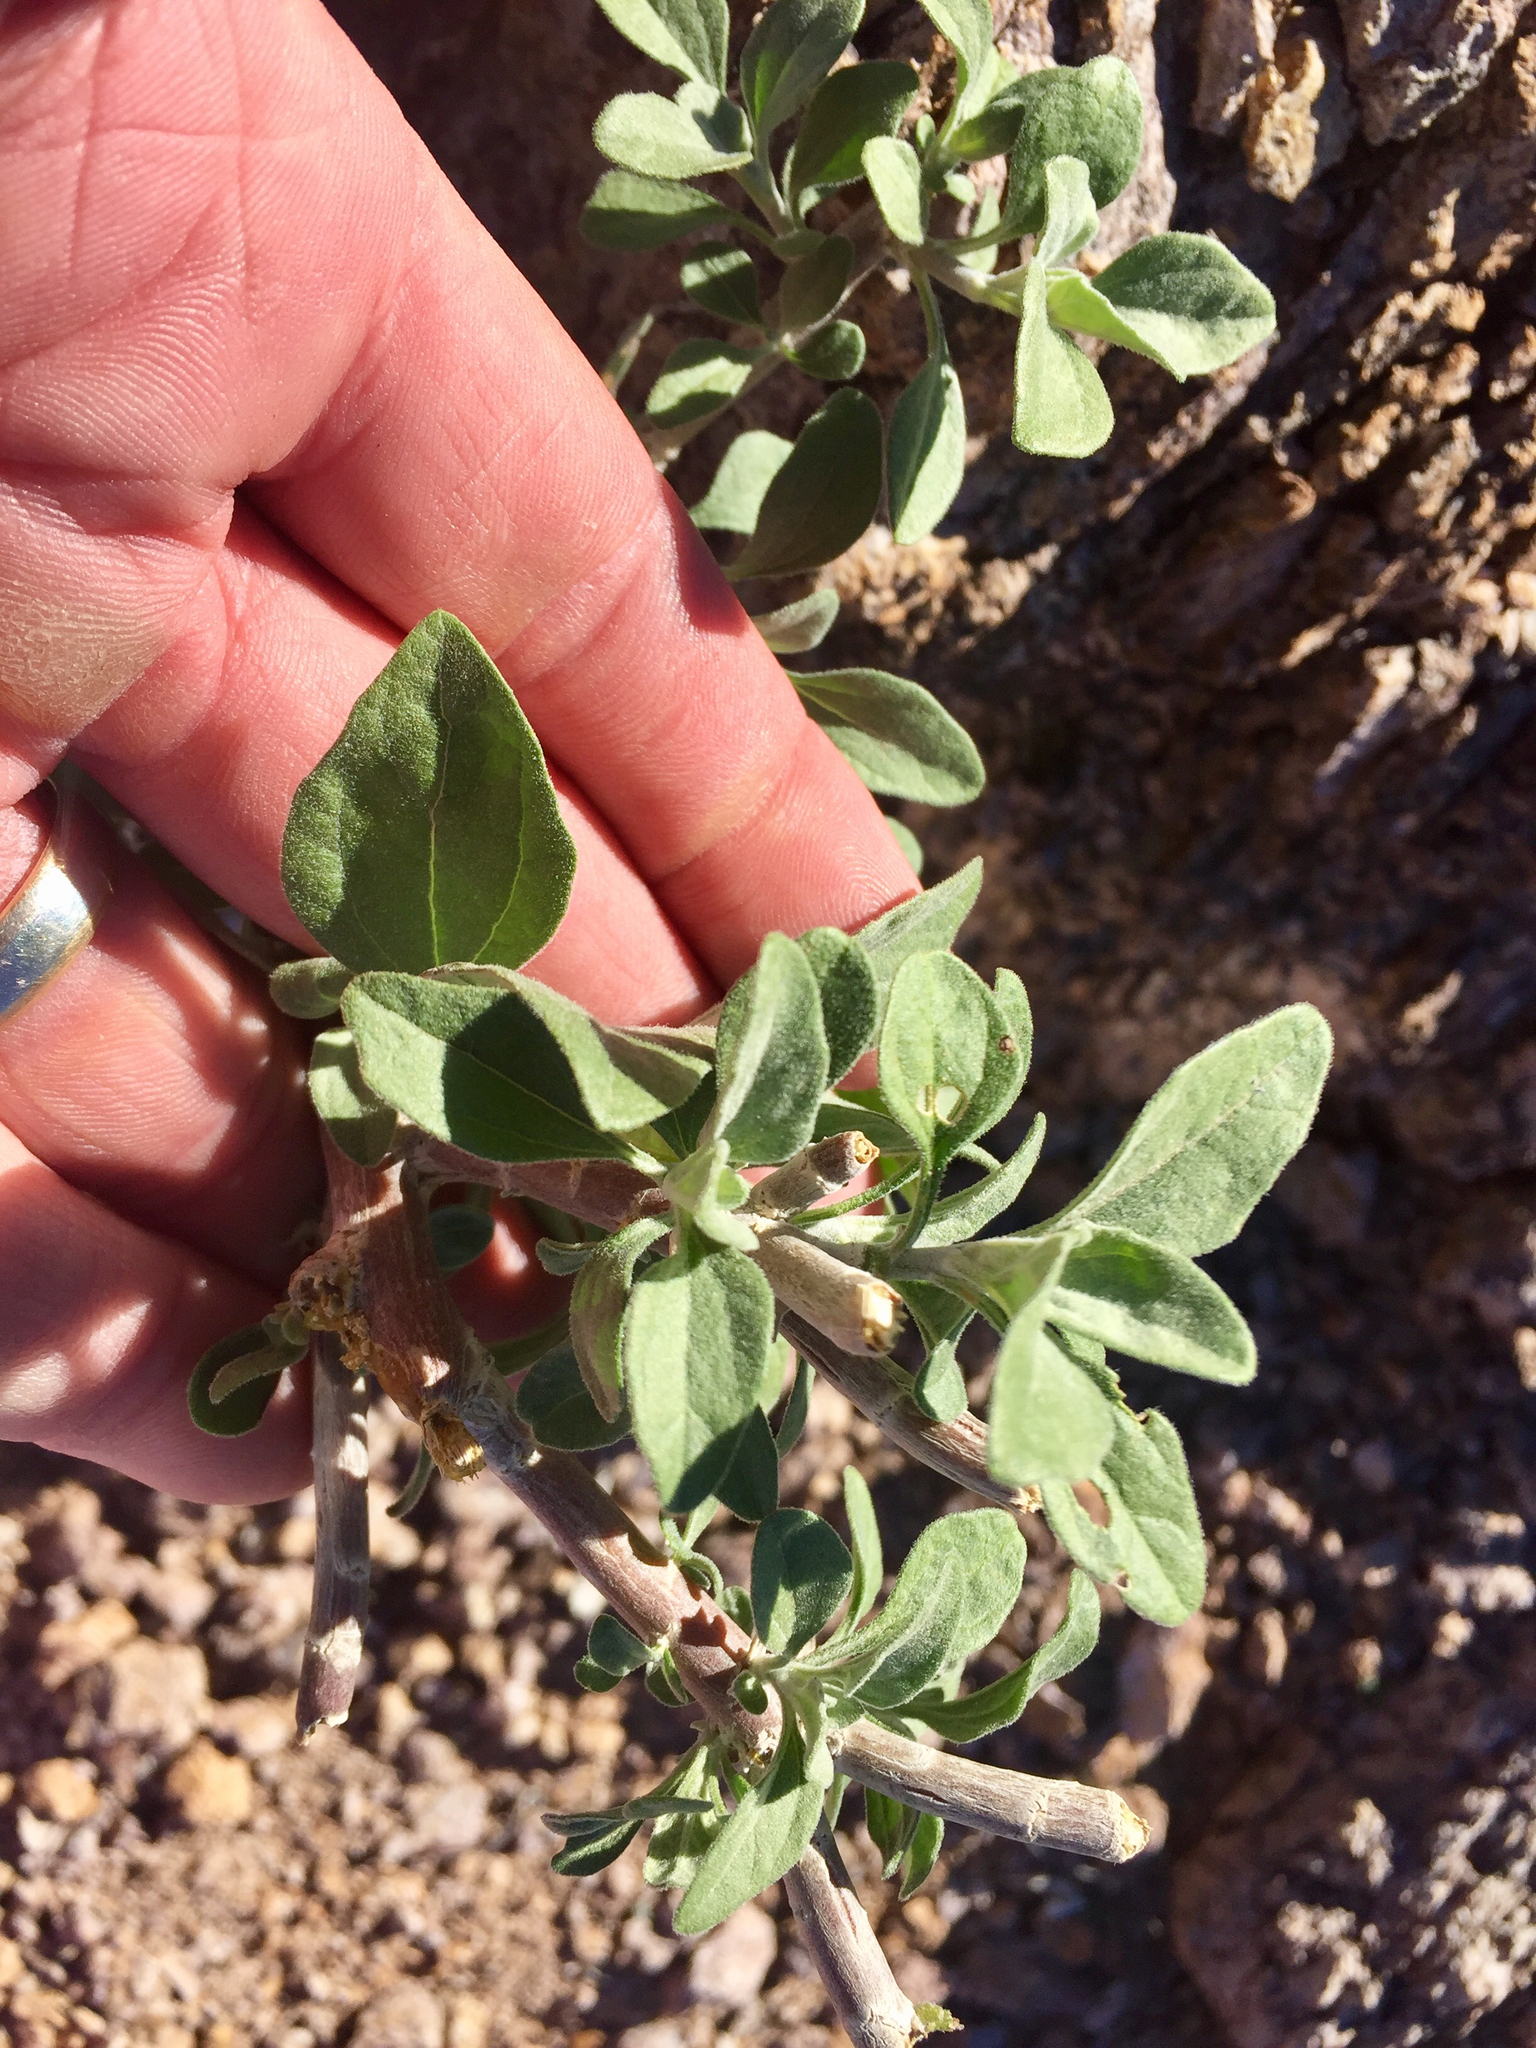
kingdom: Plantae
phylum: Tracheophyta
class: Magnoliopsida
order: Asterales
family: Asteraceae
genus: Encelia
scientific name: Encelia farinosa
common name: Brittlebush
